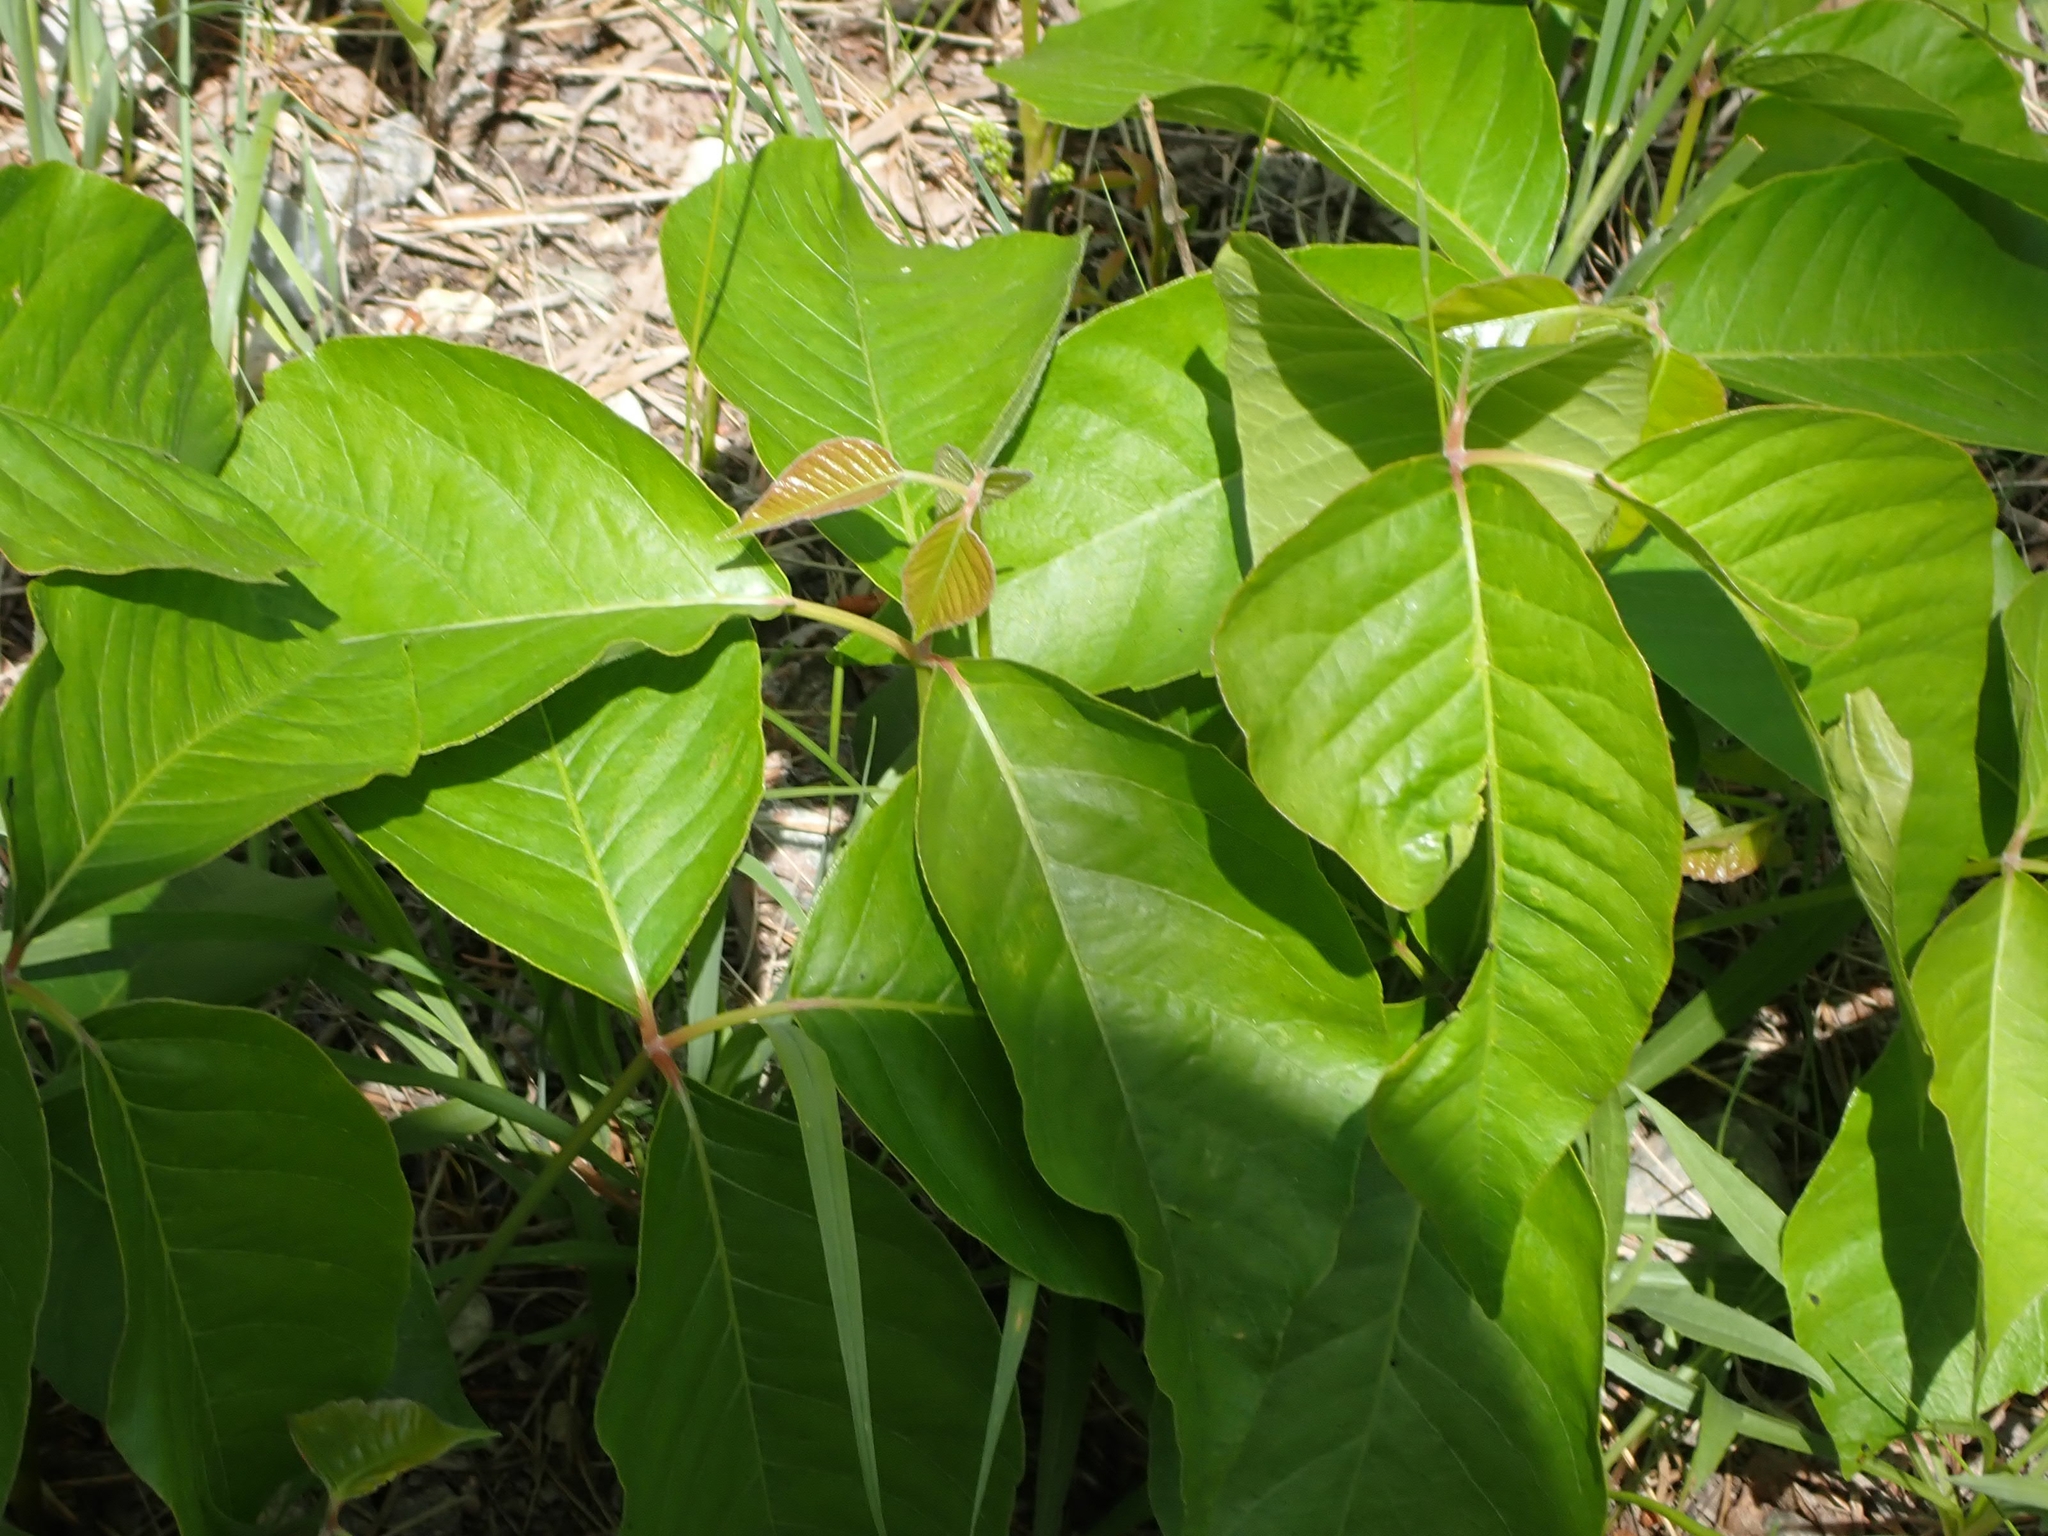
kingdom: Plantae
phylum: Tracheophyta
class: Magnoliopsida
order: Sapindales
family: Anacardiaceae
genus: Toxicodendron
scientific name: Toxicodendron rydbergii
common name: Rydberg's poison-ivy
